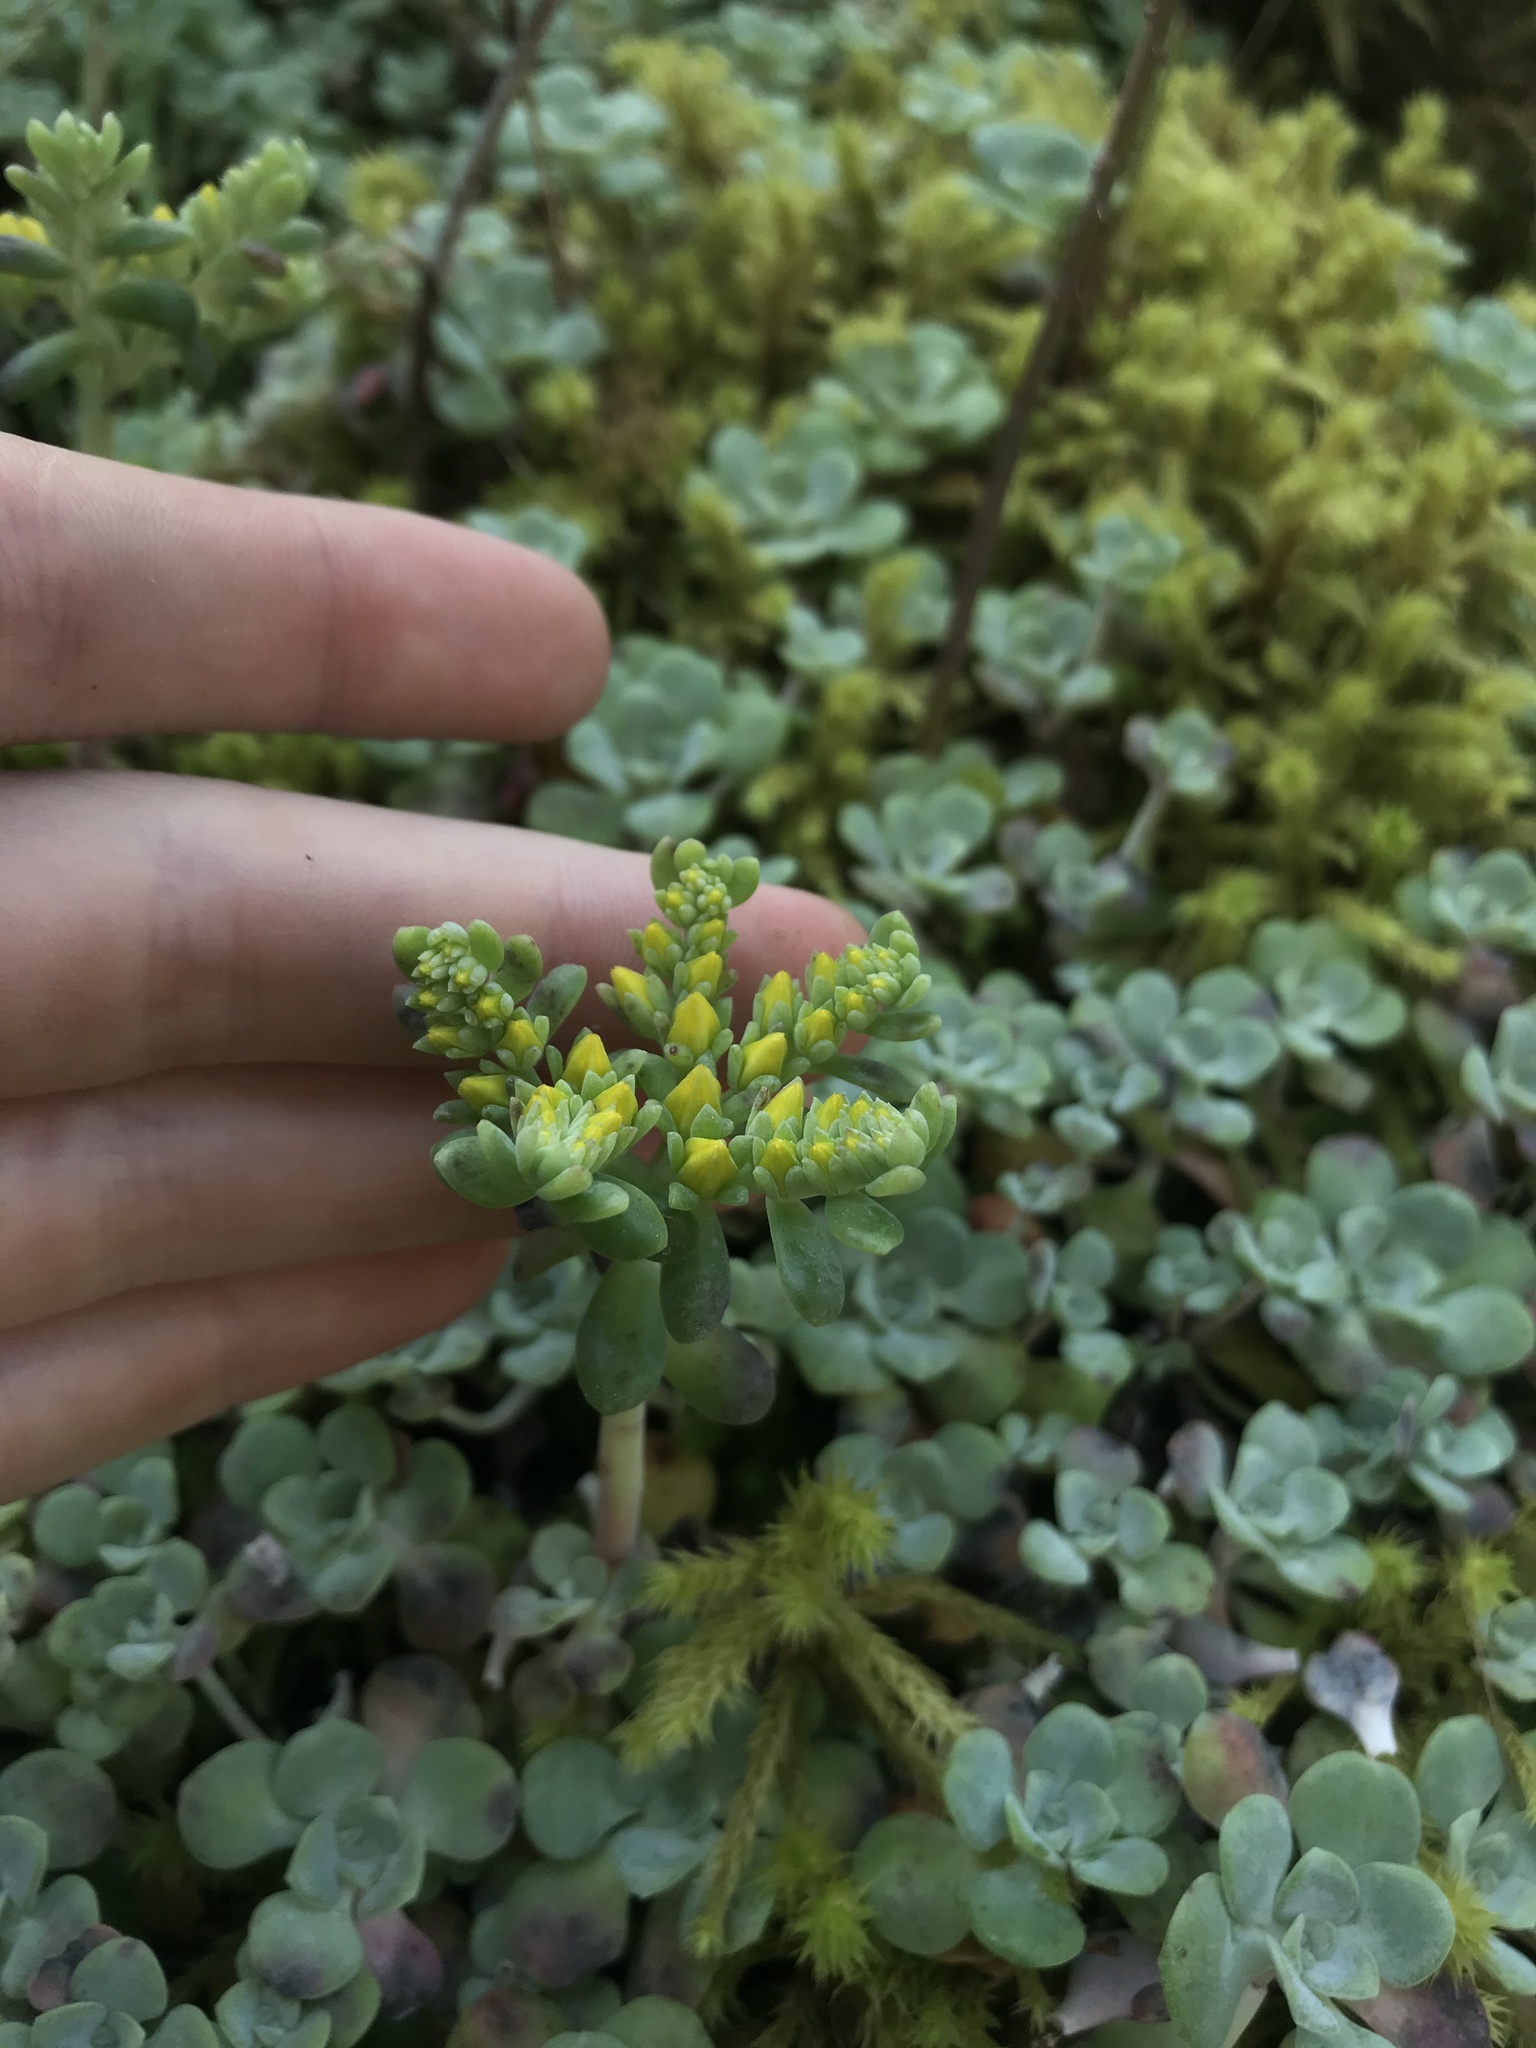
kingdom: Plantae
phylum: Tracheophyta
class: Magnoliopsida
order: Saxifragales
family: Crassulaceae
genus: Sedum
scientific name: Sedum spathulifolium
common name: Colorado stonecrop
